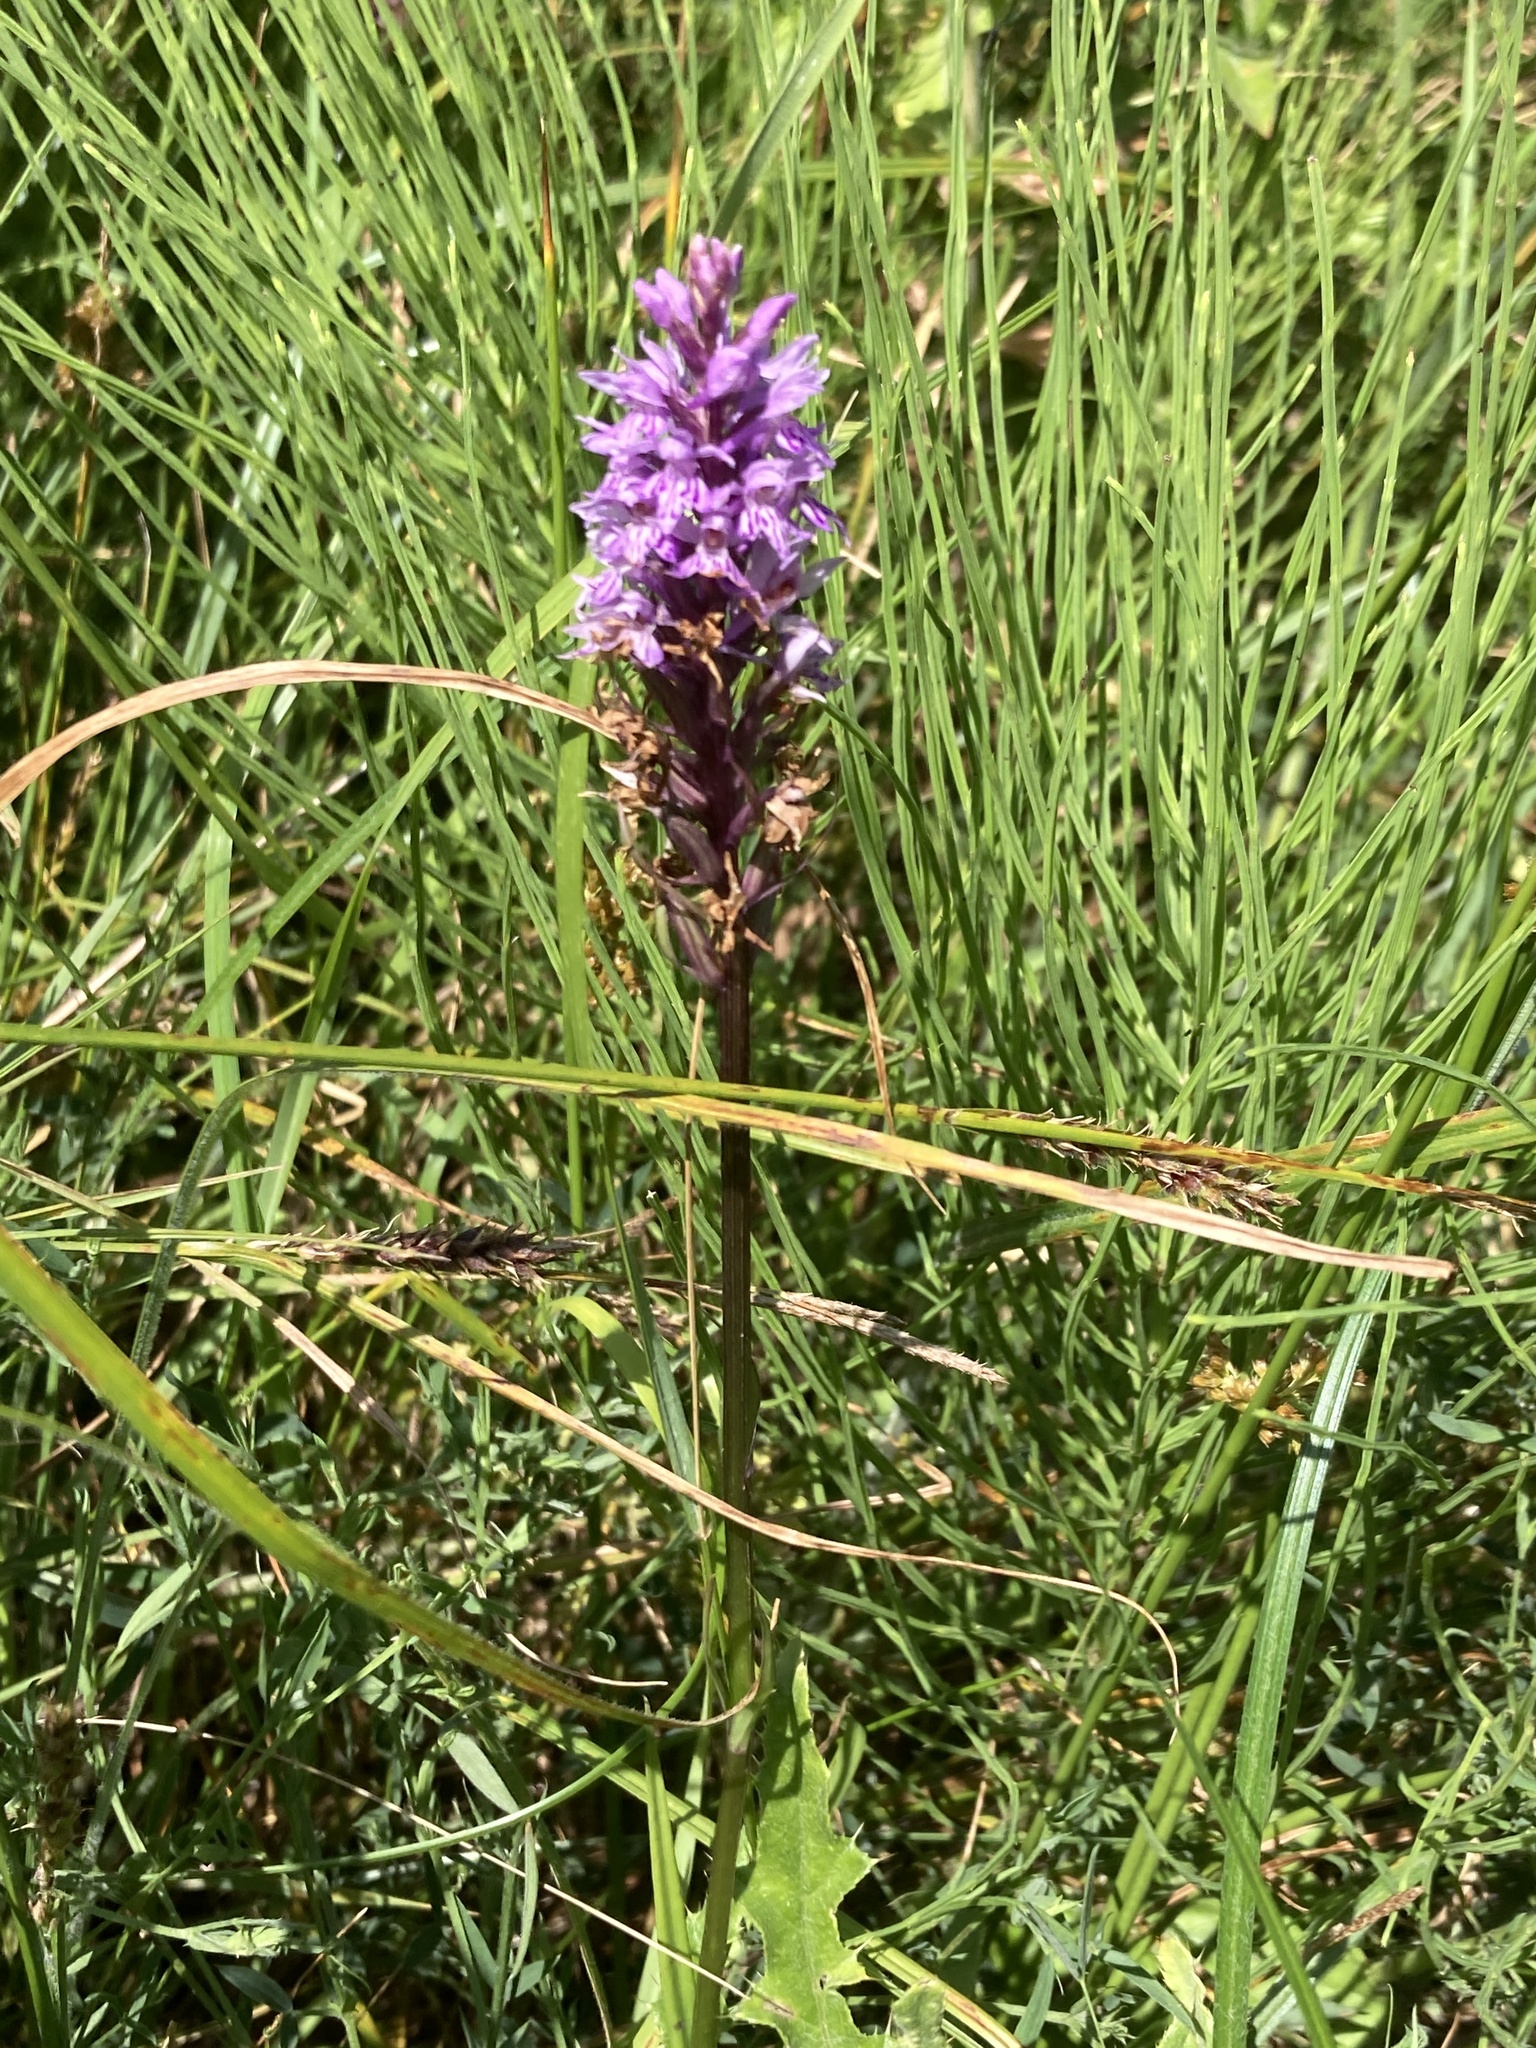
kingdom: Plantae
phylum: Tracheophyta
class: Liliopsida
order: Asparagales
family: Orchidaceae
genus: Dactylorhiza
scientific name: Dactylorhiza maculata
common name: Heath spotted-orchid
